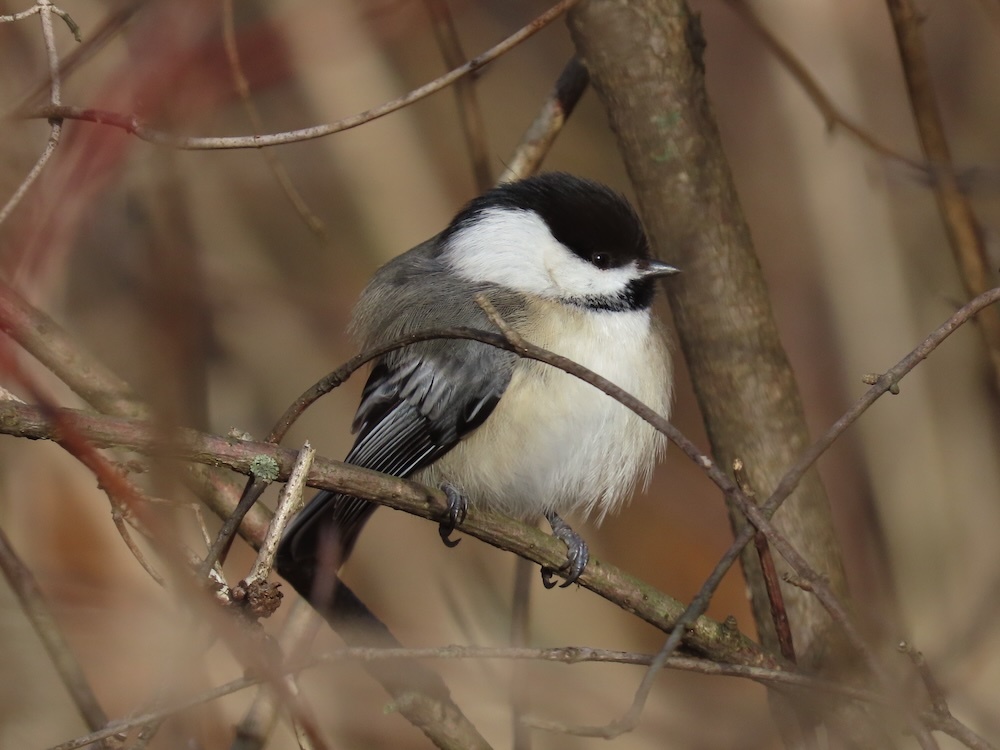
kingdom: Animalia
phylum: Chordata
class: Aves
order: Passeriformes
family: Paridae
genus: Poecile
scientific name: Poecile atricapillus
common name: Black-capped chickadee
